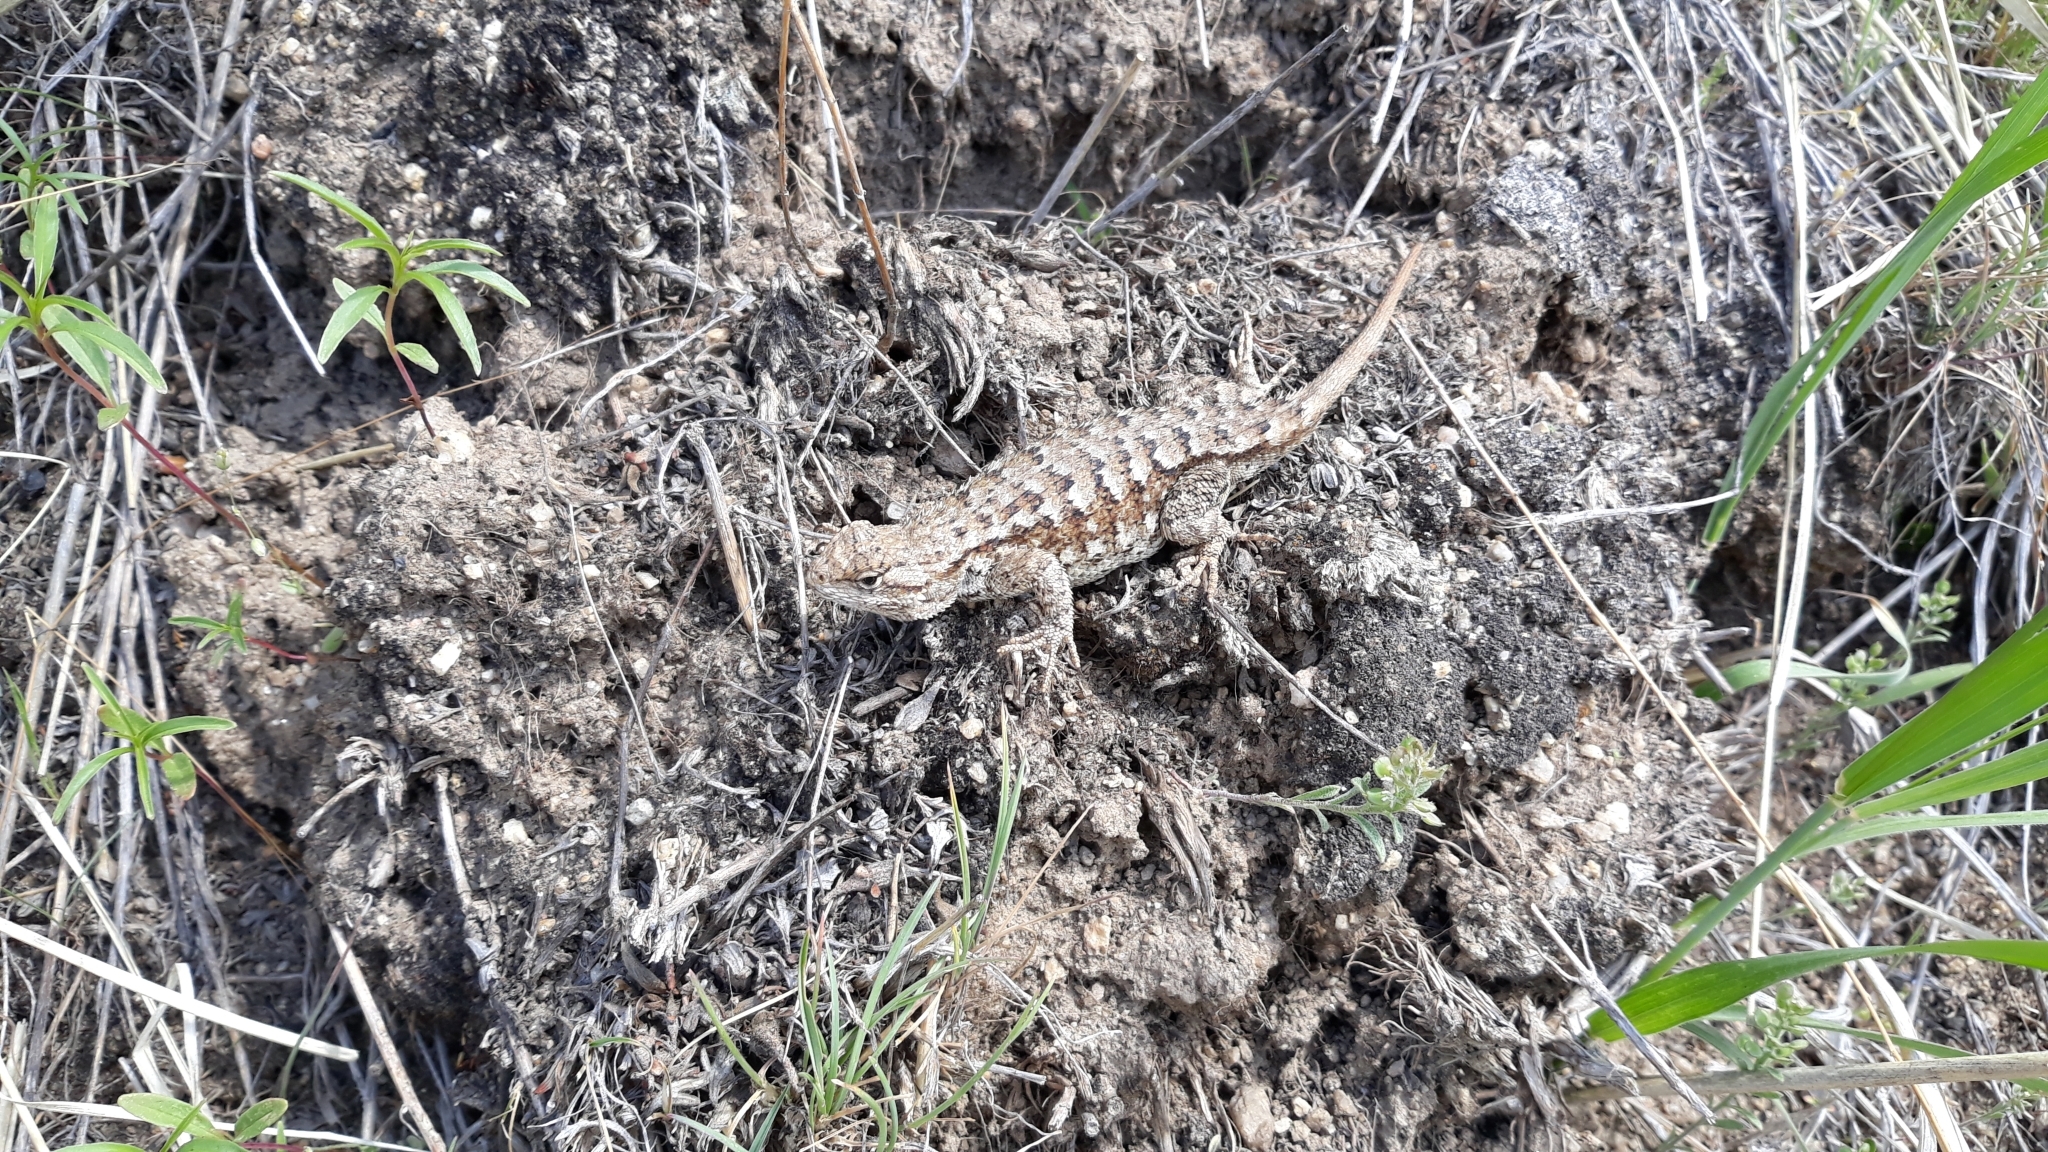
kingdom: Animalia
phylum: Chordata
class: Squamata
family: Phrynosomatidae
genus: Sceloporus
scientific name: Sceloporus occidentalis
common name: Western fence lizard
